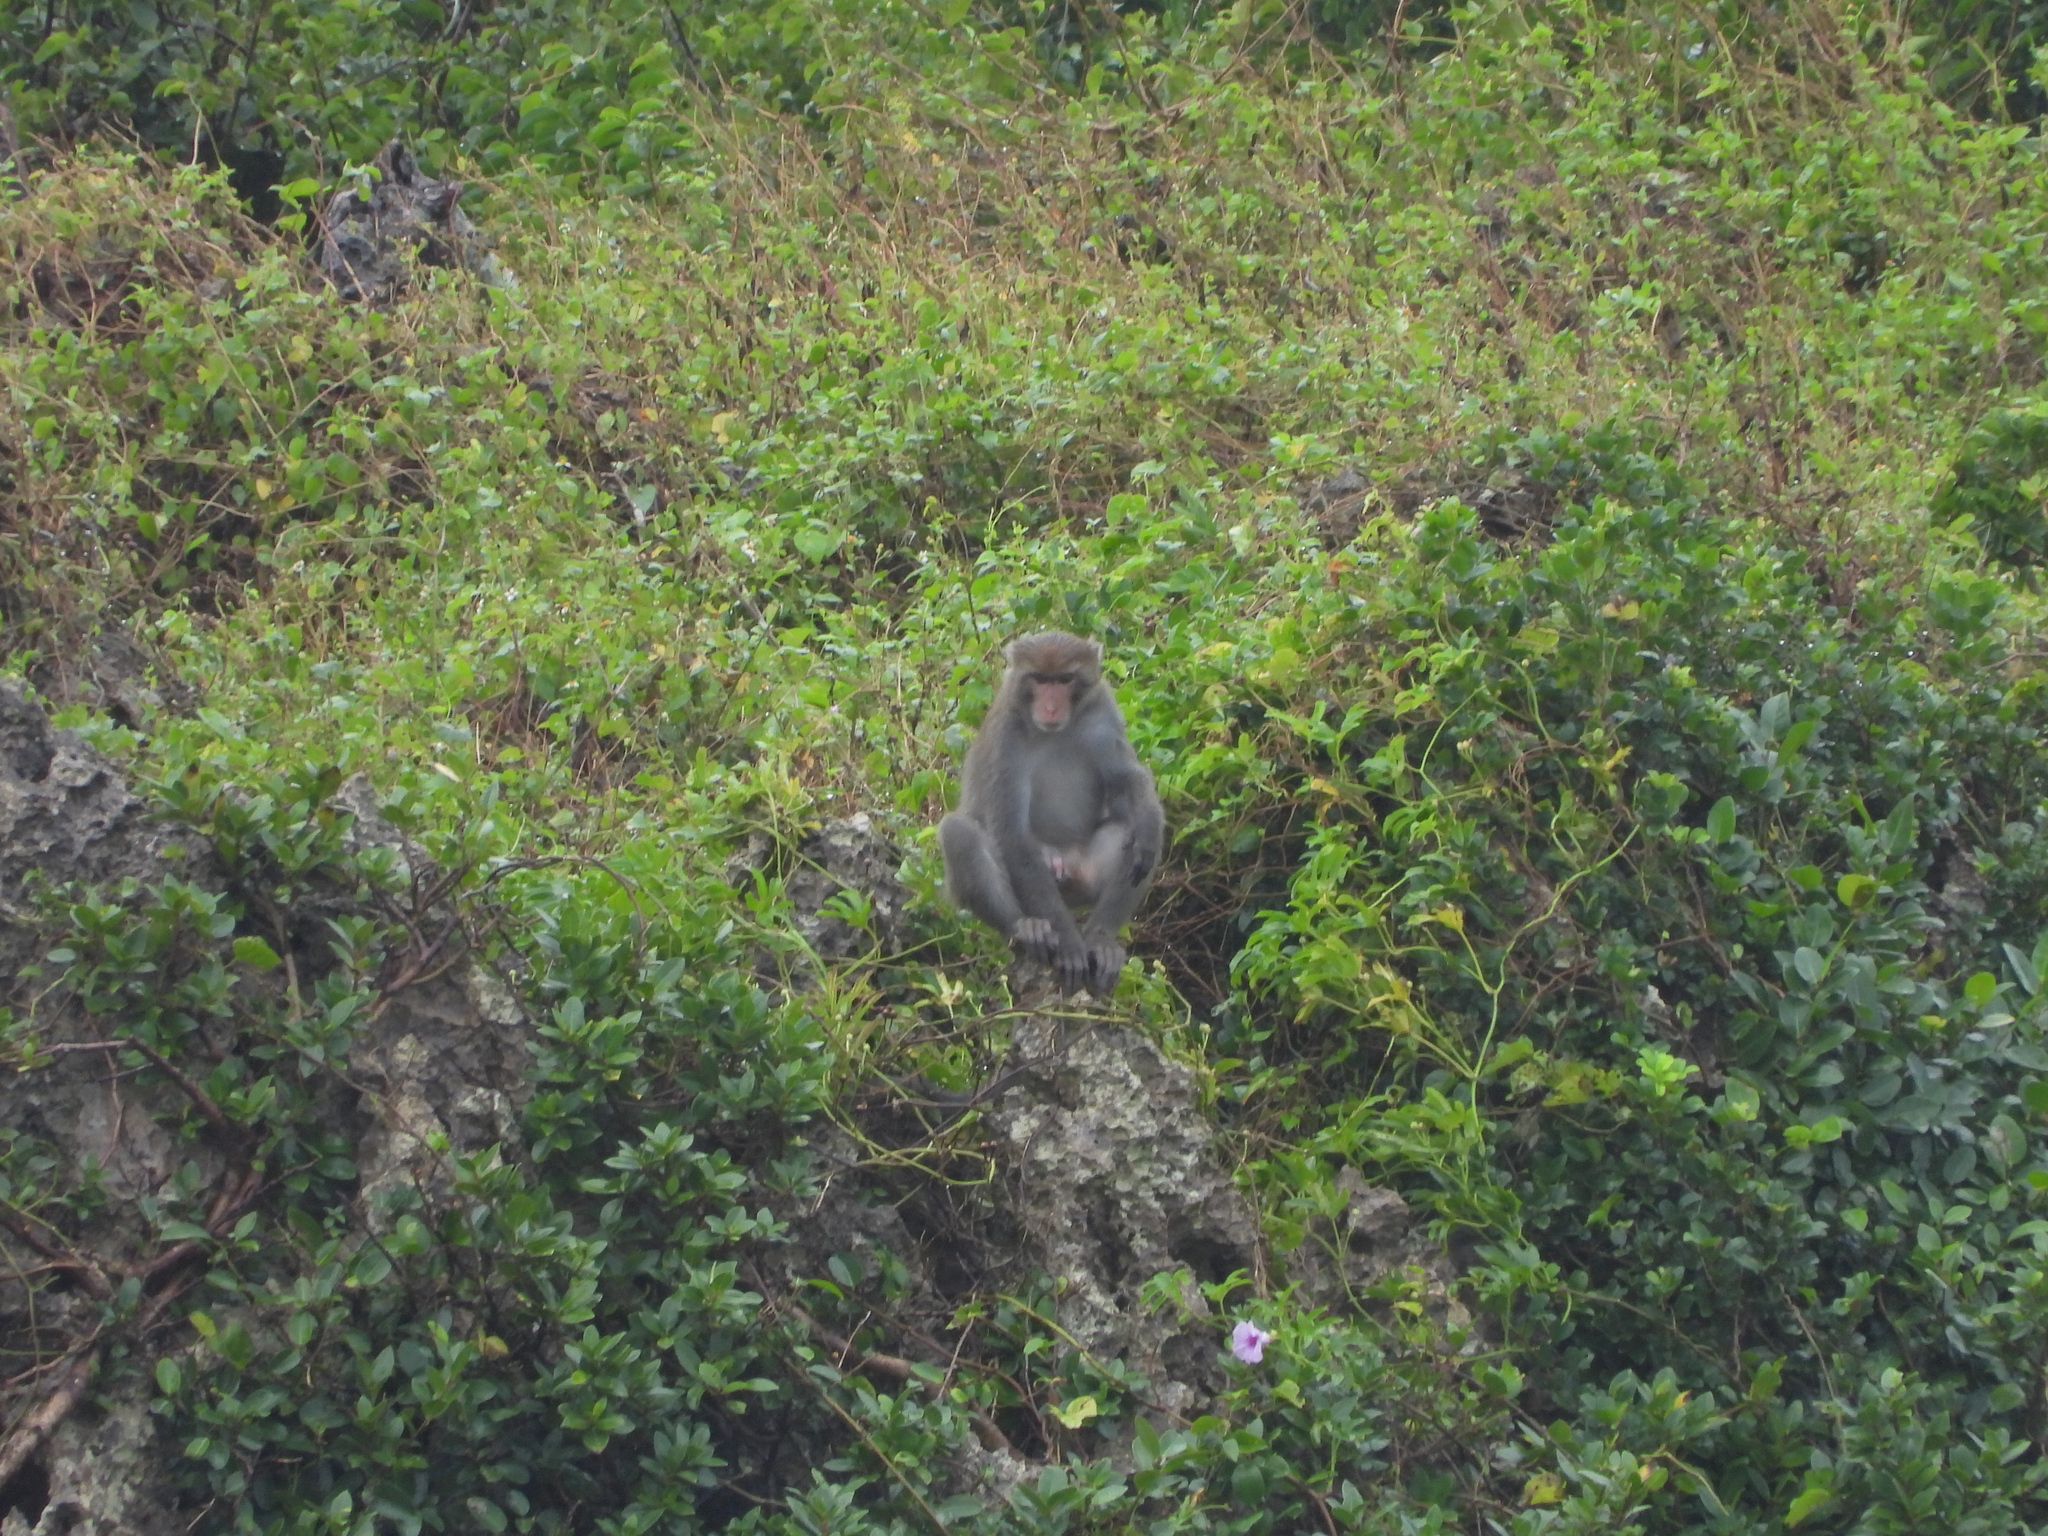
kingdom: Animalia
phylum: Chordata
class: Mammalia
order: Primates
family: Cercopithecidae
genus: Macaca
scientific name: Macaca cyclopis
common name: Formosan rock macaque
